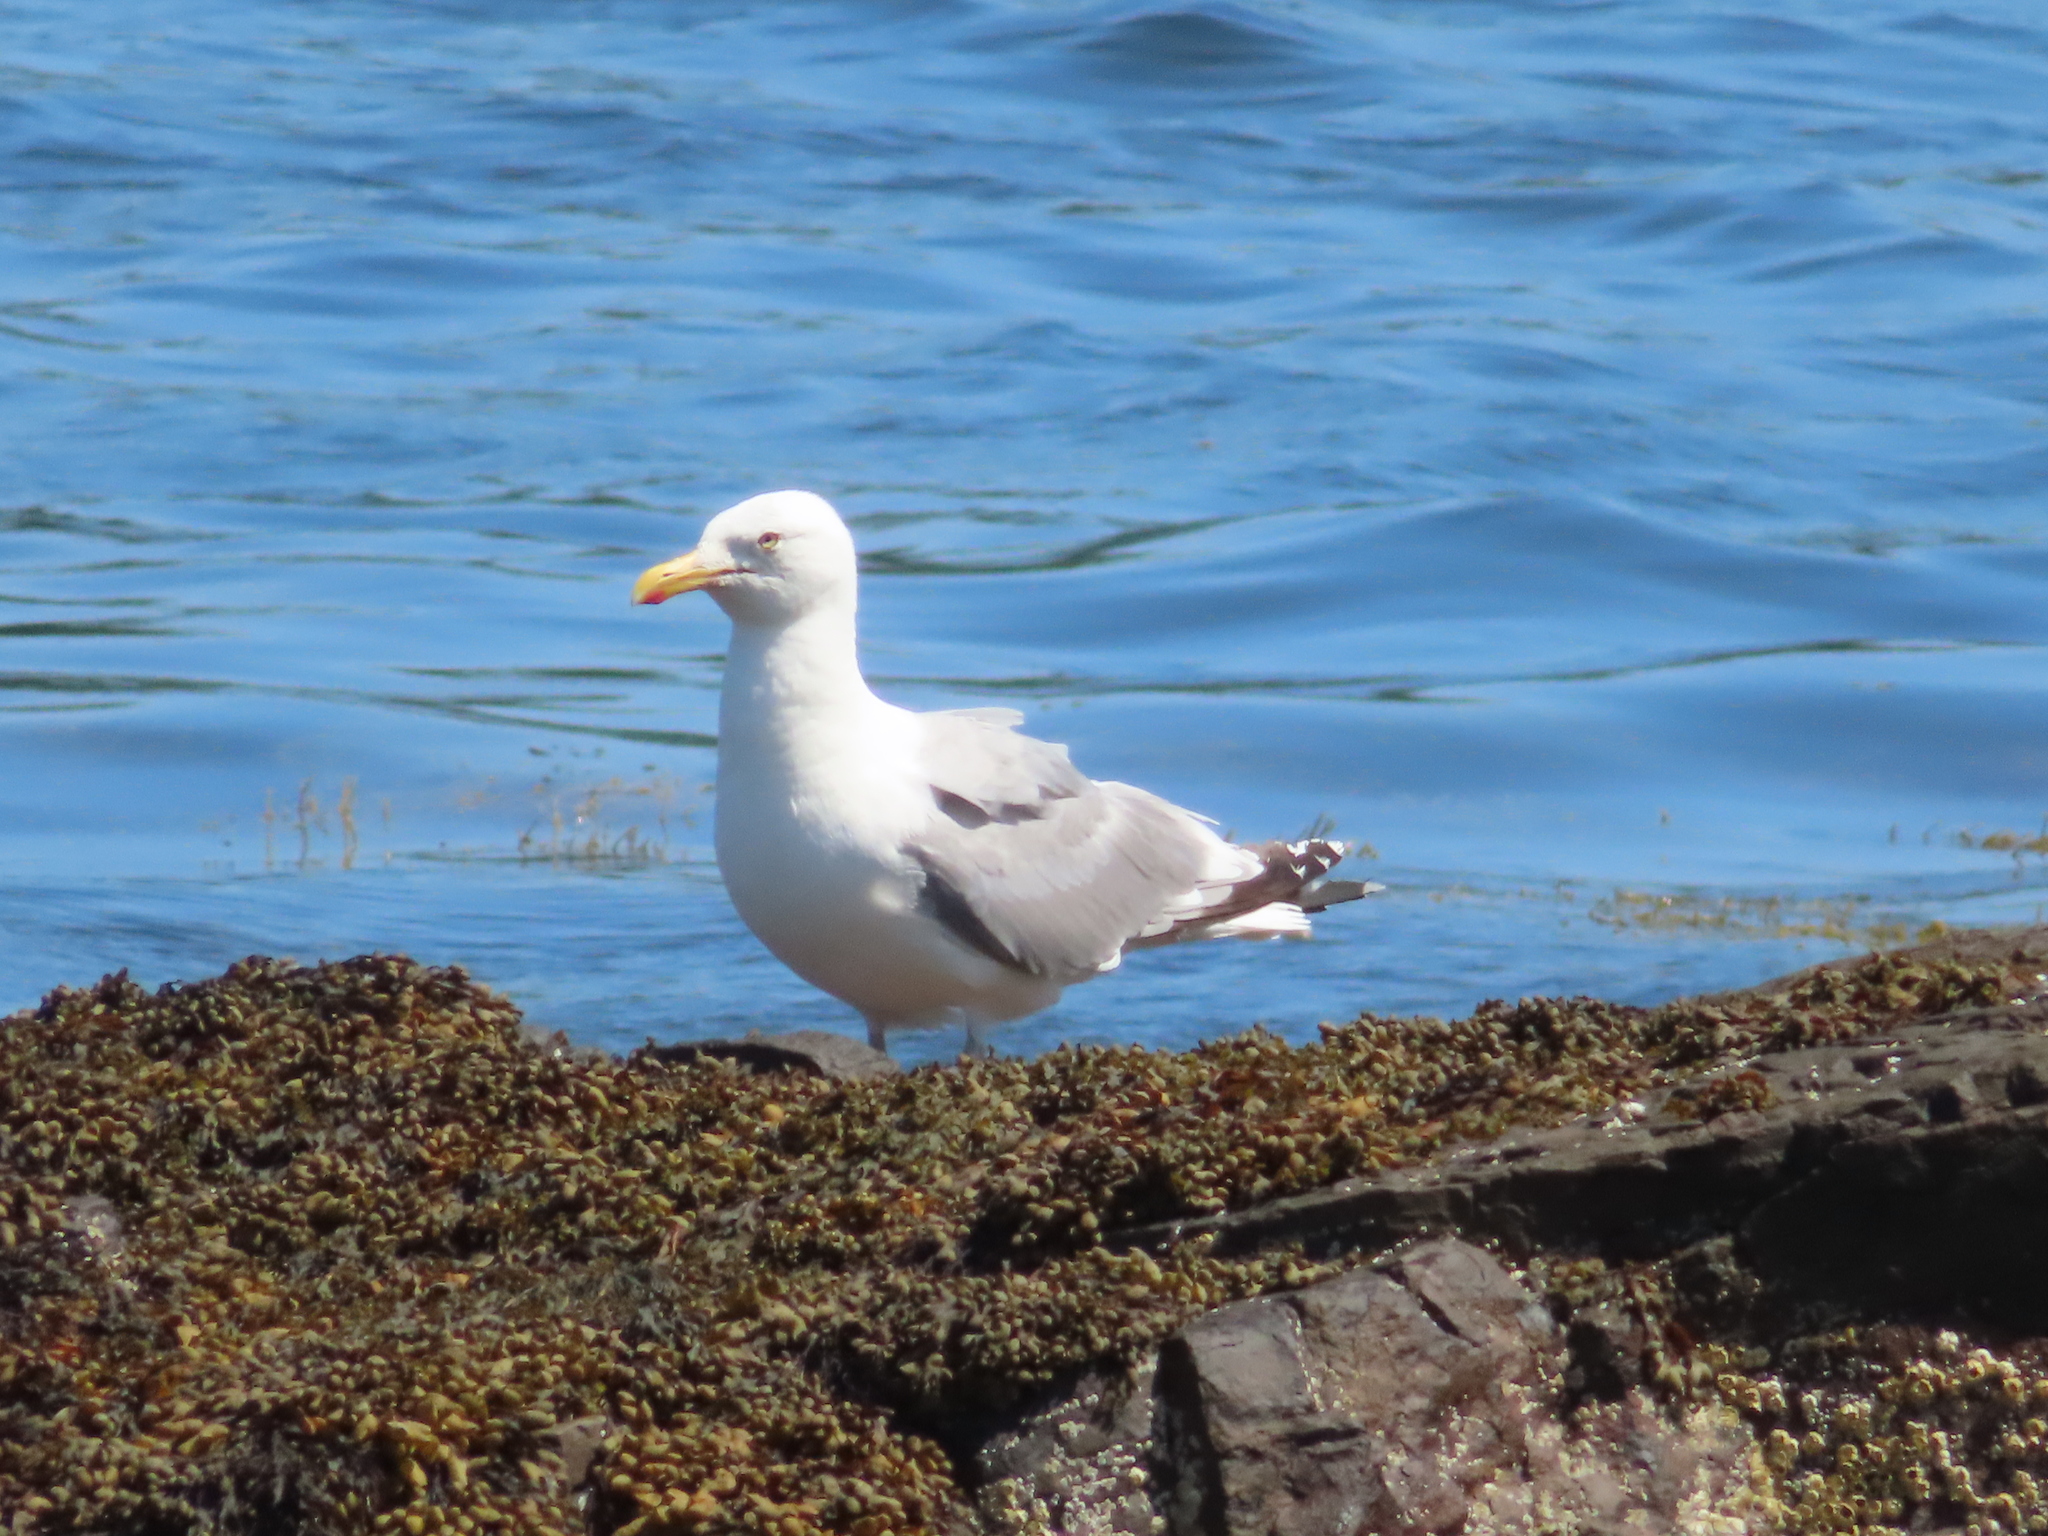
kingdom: Animalia
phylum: Chordata
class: Aves
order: Charadriiformes
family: Laridae
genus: Larus
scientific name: Larus argentatus
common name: Herring gull
